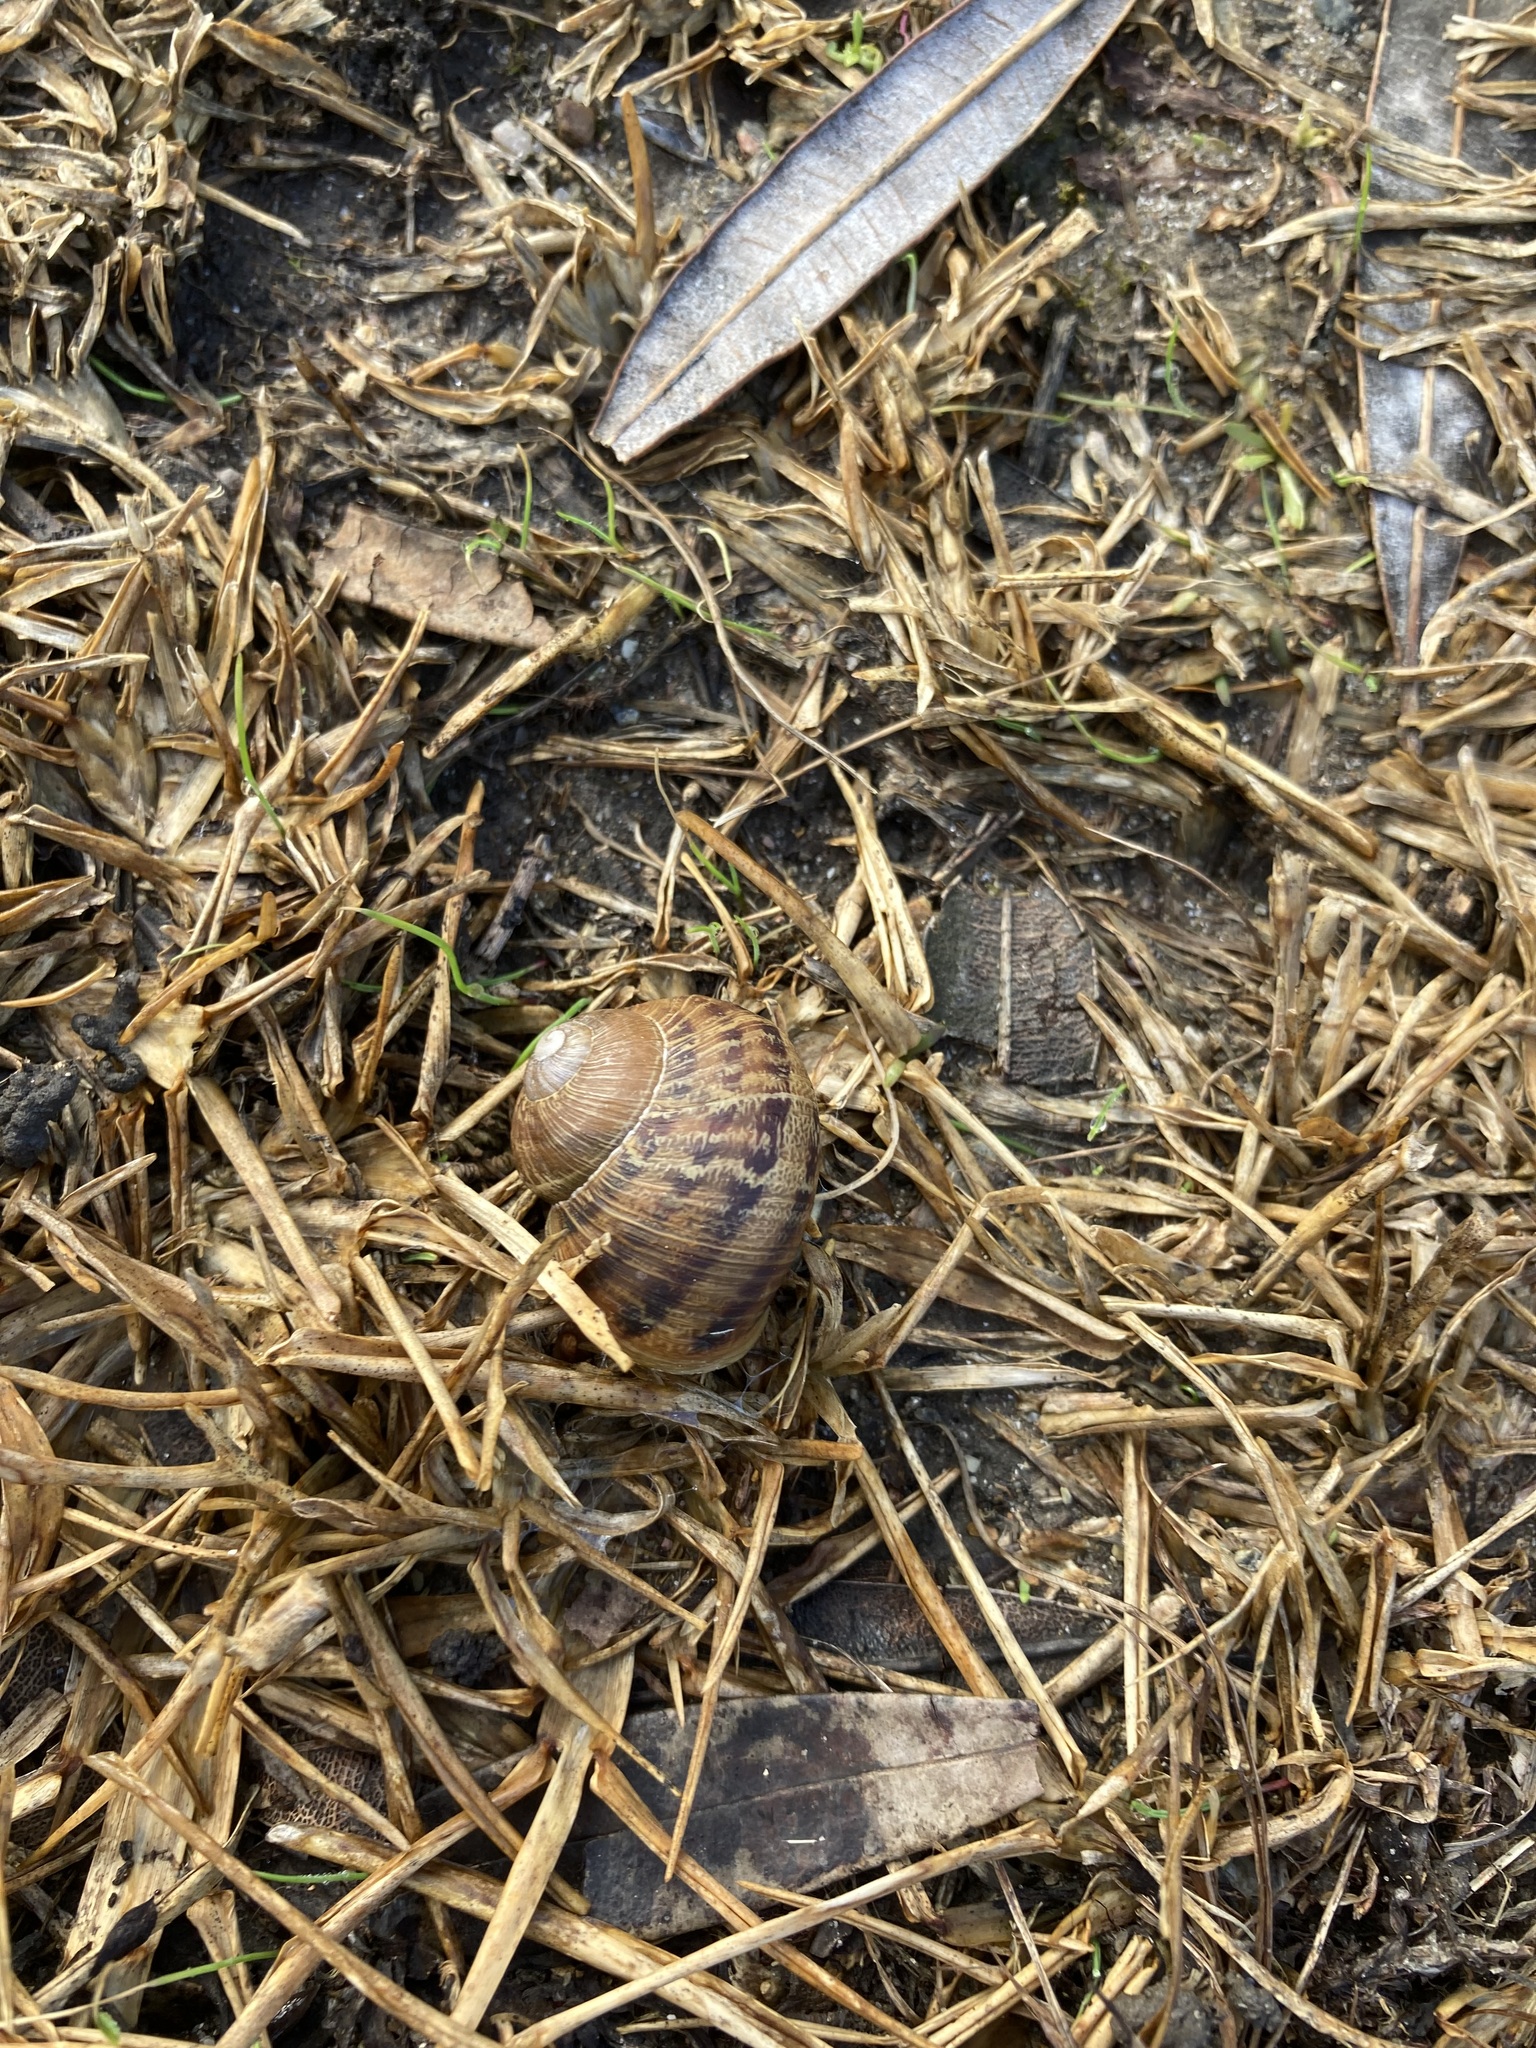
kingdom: Animalia
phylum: Mollusca
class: Gastropoda
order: Stylommatophora
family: Helicidae
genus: Cornu
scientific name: Cornu aspersum
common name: Brown garden snail
